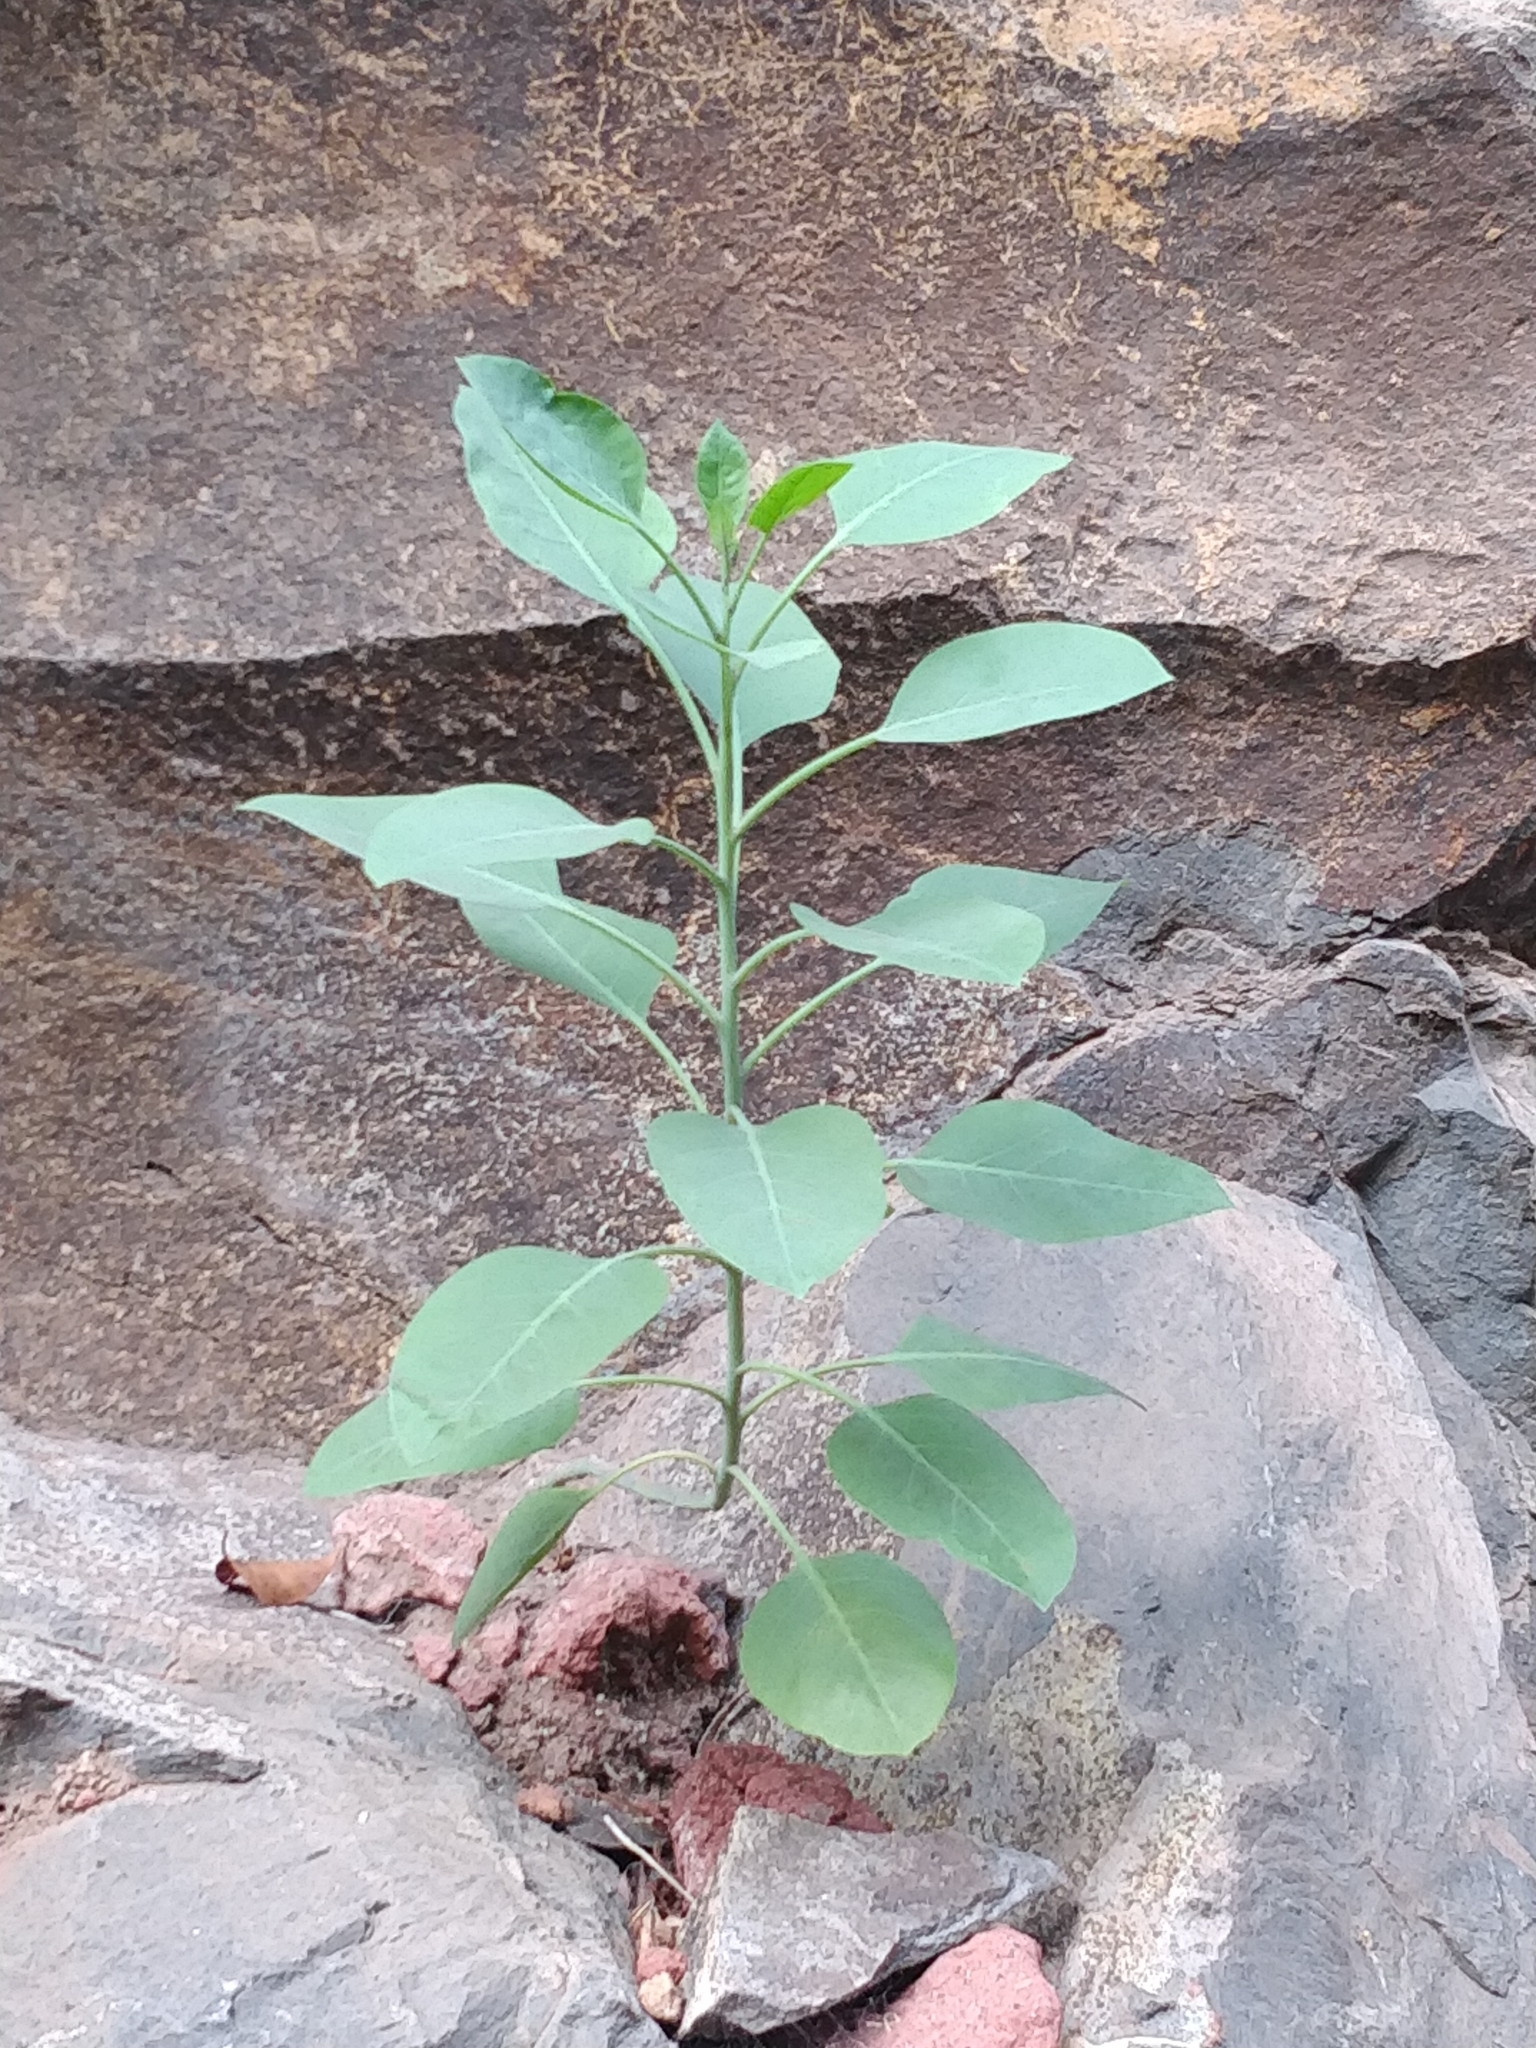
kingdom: Plantae
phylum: Tracheophyta
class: Magnoliopsida
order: Solanales
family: Solanaceae
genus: Nicotiana
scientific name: Nicotiana glauca
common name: Tree tobacco
